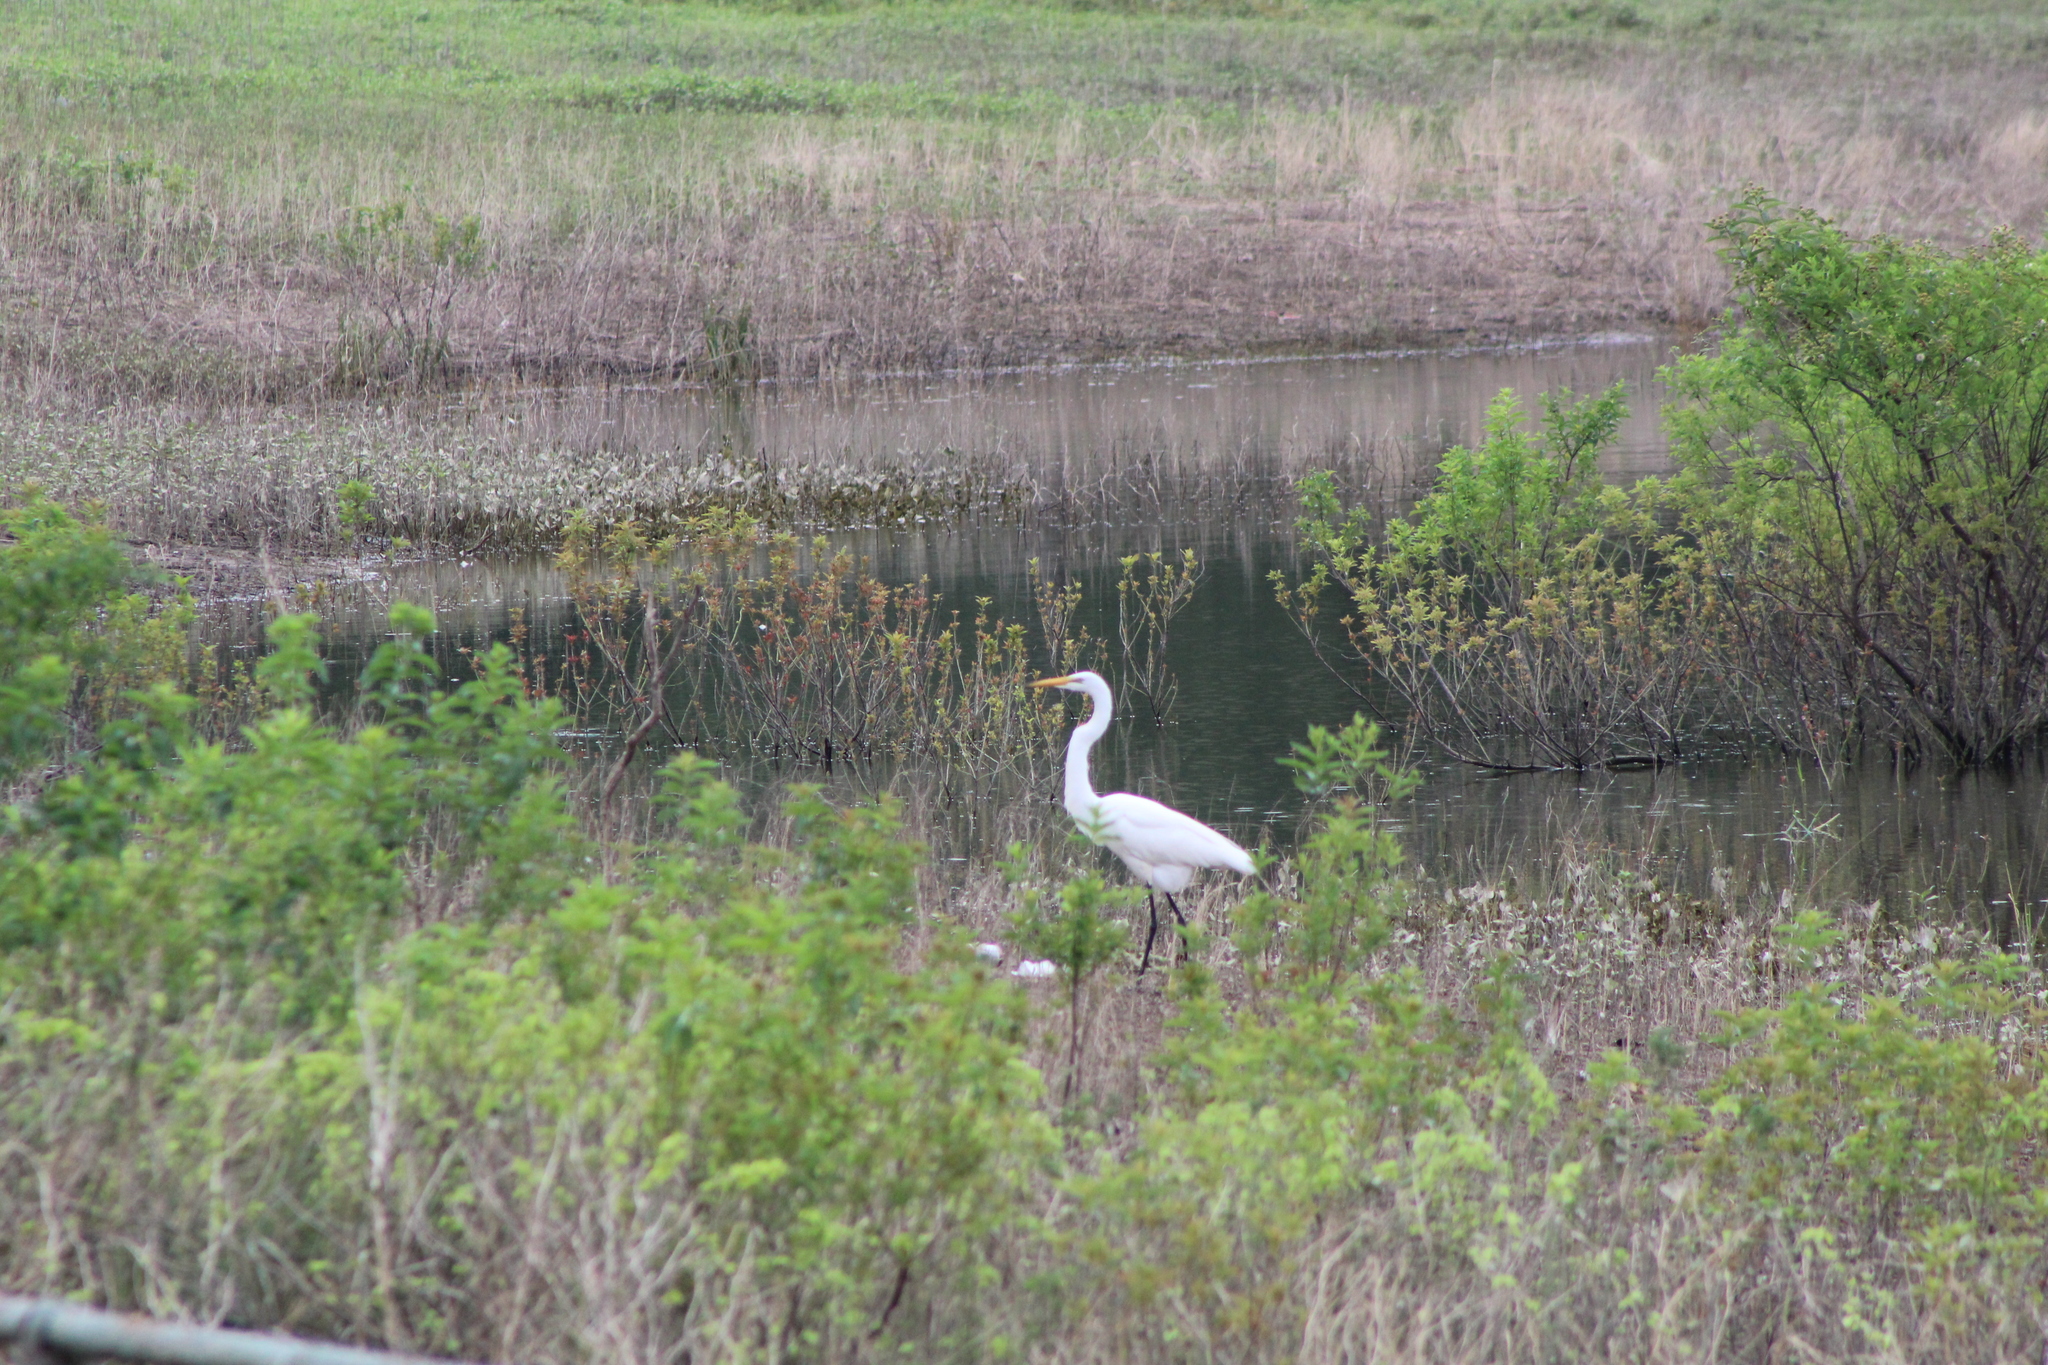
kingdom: Animalia
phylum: Chordata
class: Aves
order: Pelecaniformes
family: Ardeidae
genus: Ardea
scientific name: Ardea alba
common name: Great egret
